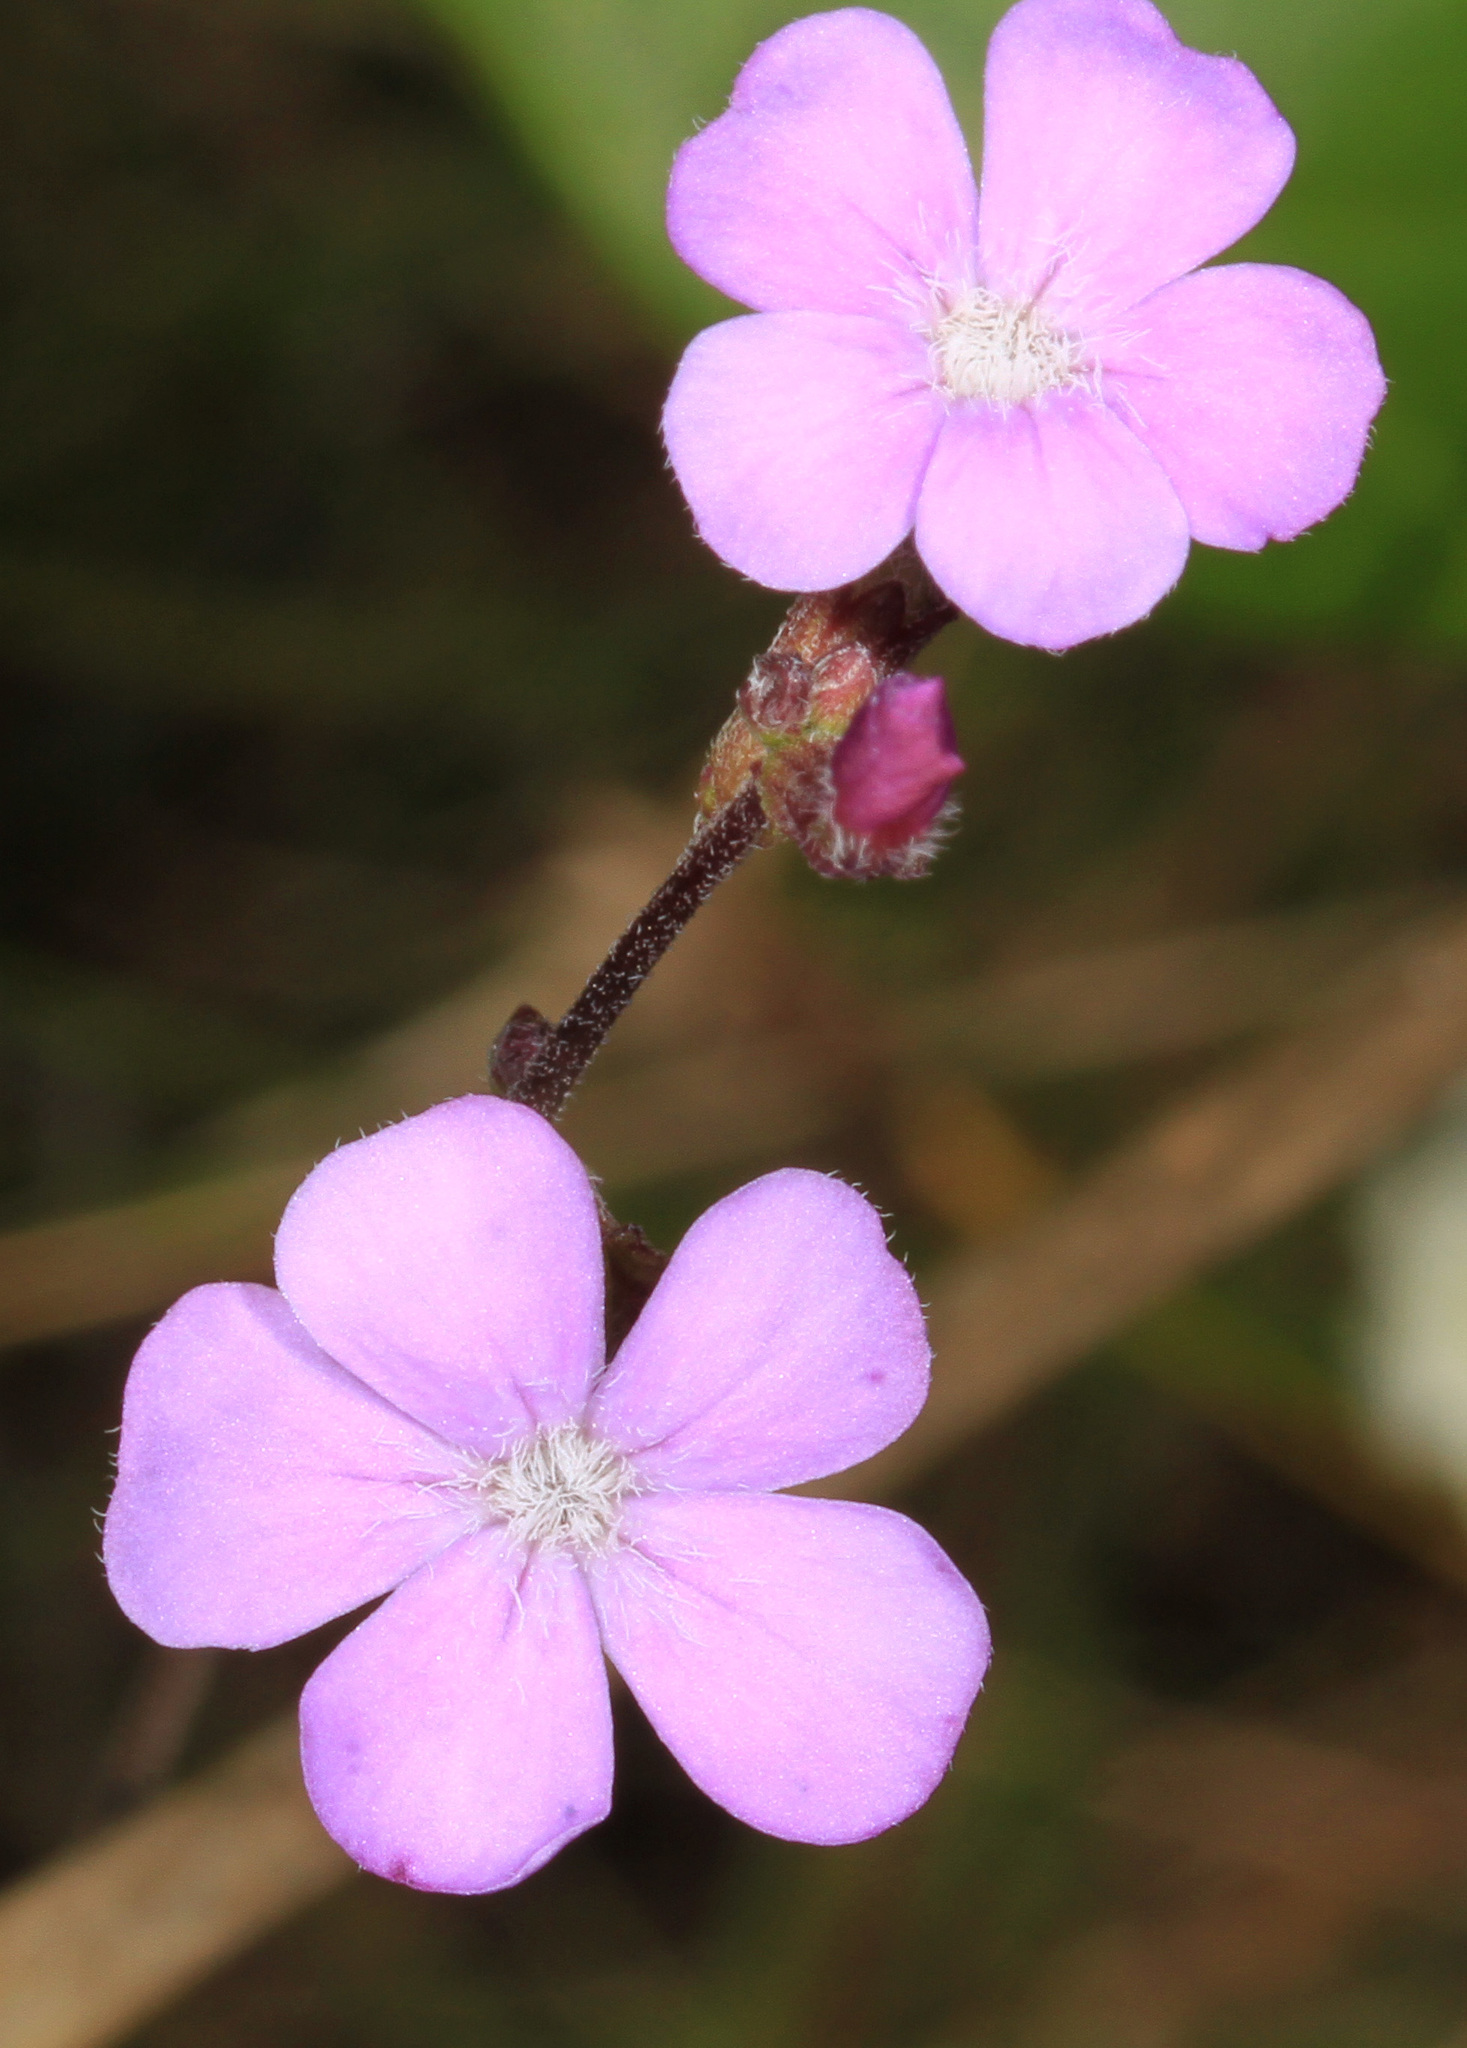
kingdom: Plantae
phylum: Tracheophyta
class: Magnoliopsida
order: Lamiales
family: Orobanchaceae
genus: Buchnera
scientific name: Buchnera floridana
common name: Florida bluehearts
